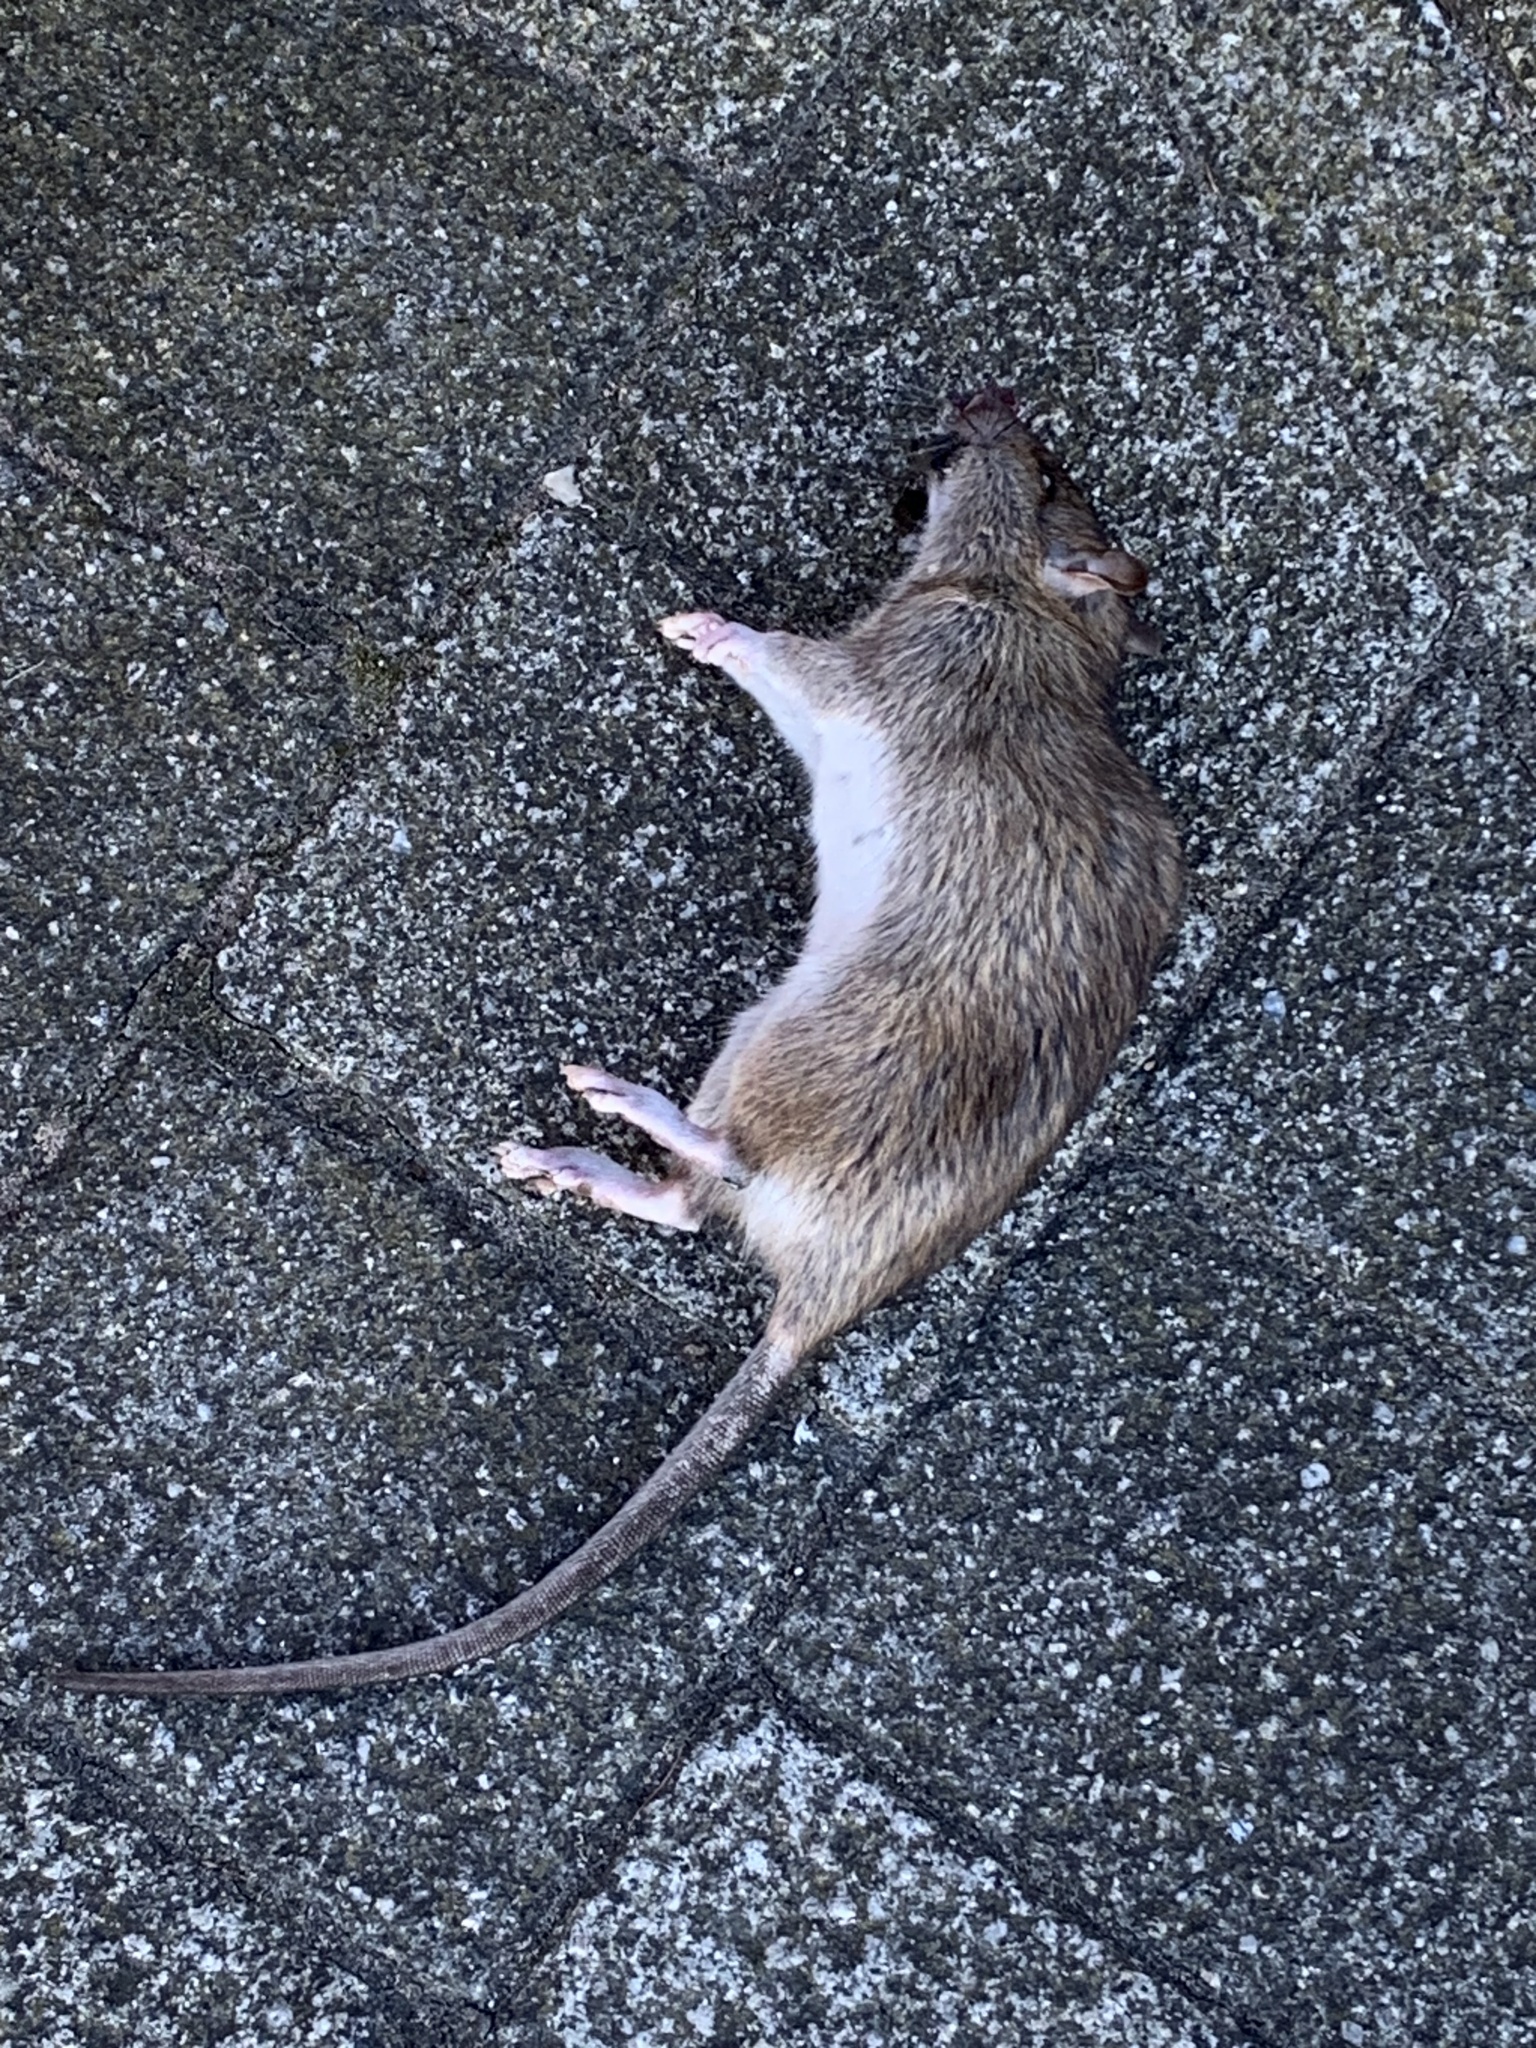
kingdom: Animalia
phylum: Chordata
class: Mammalia
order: Rodentia
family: Muridae
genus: Rattus
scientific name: Rattus norvegicus
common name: Brown rat
